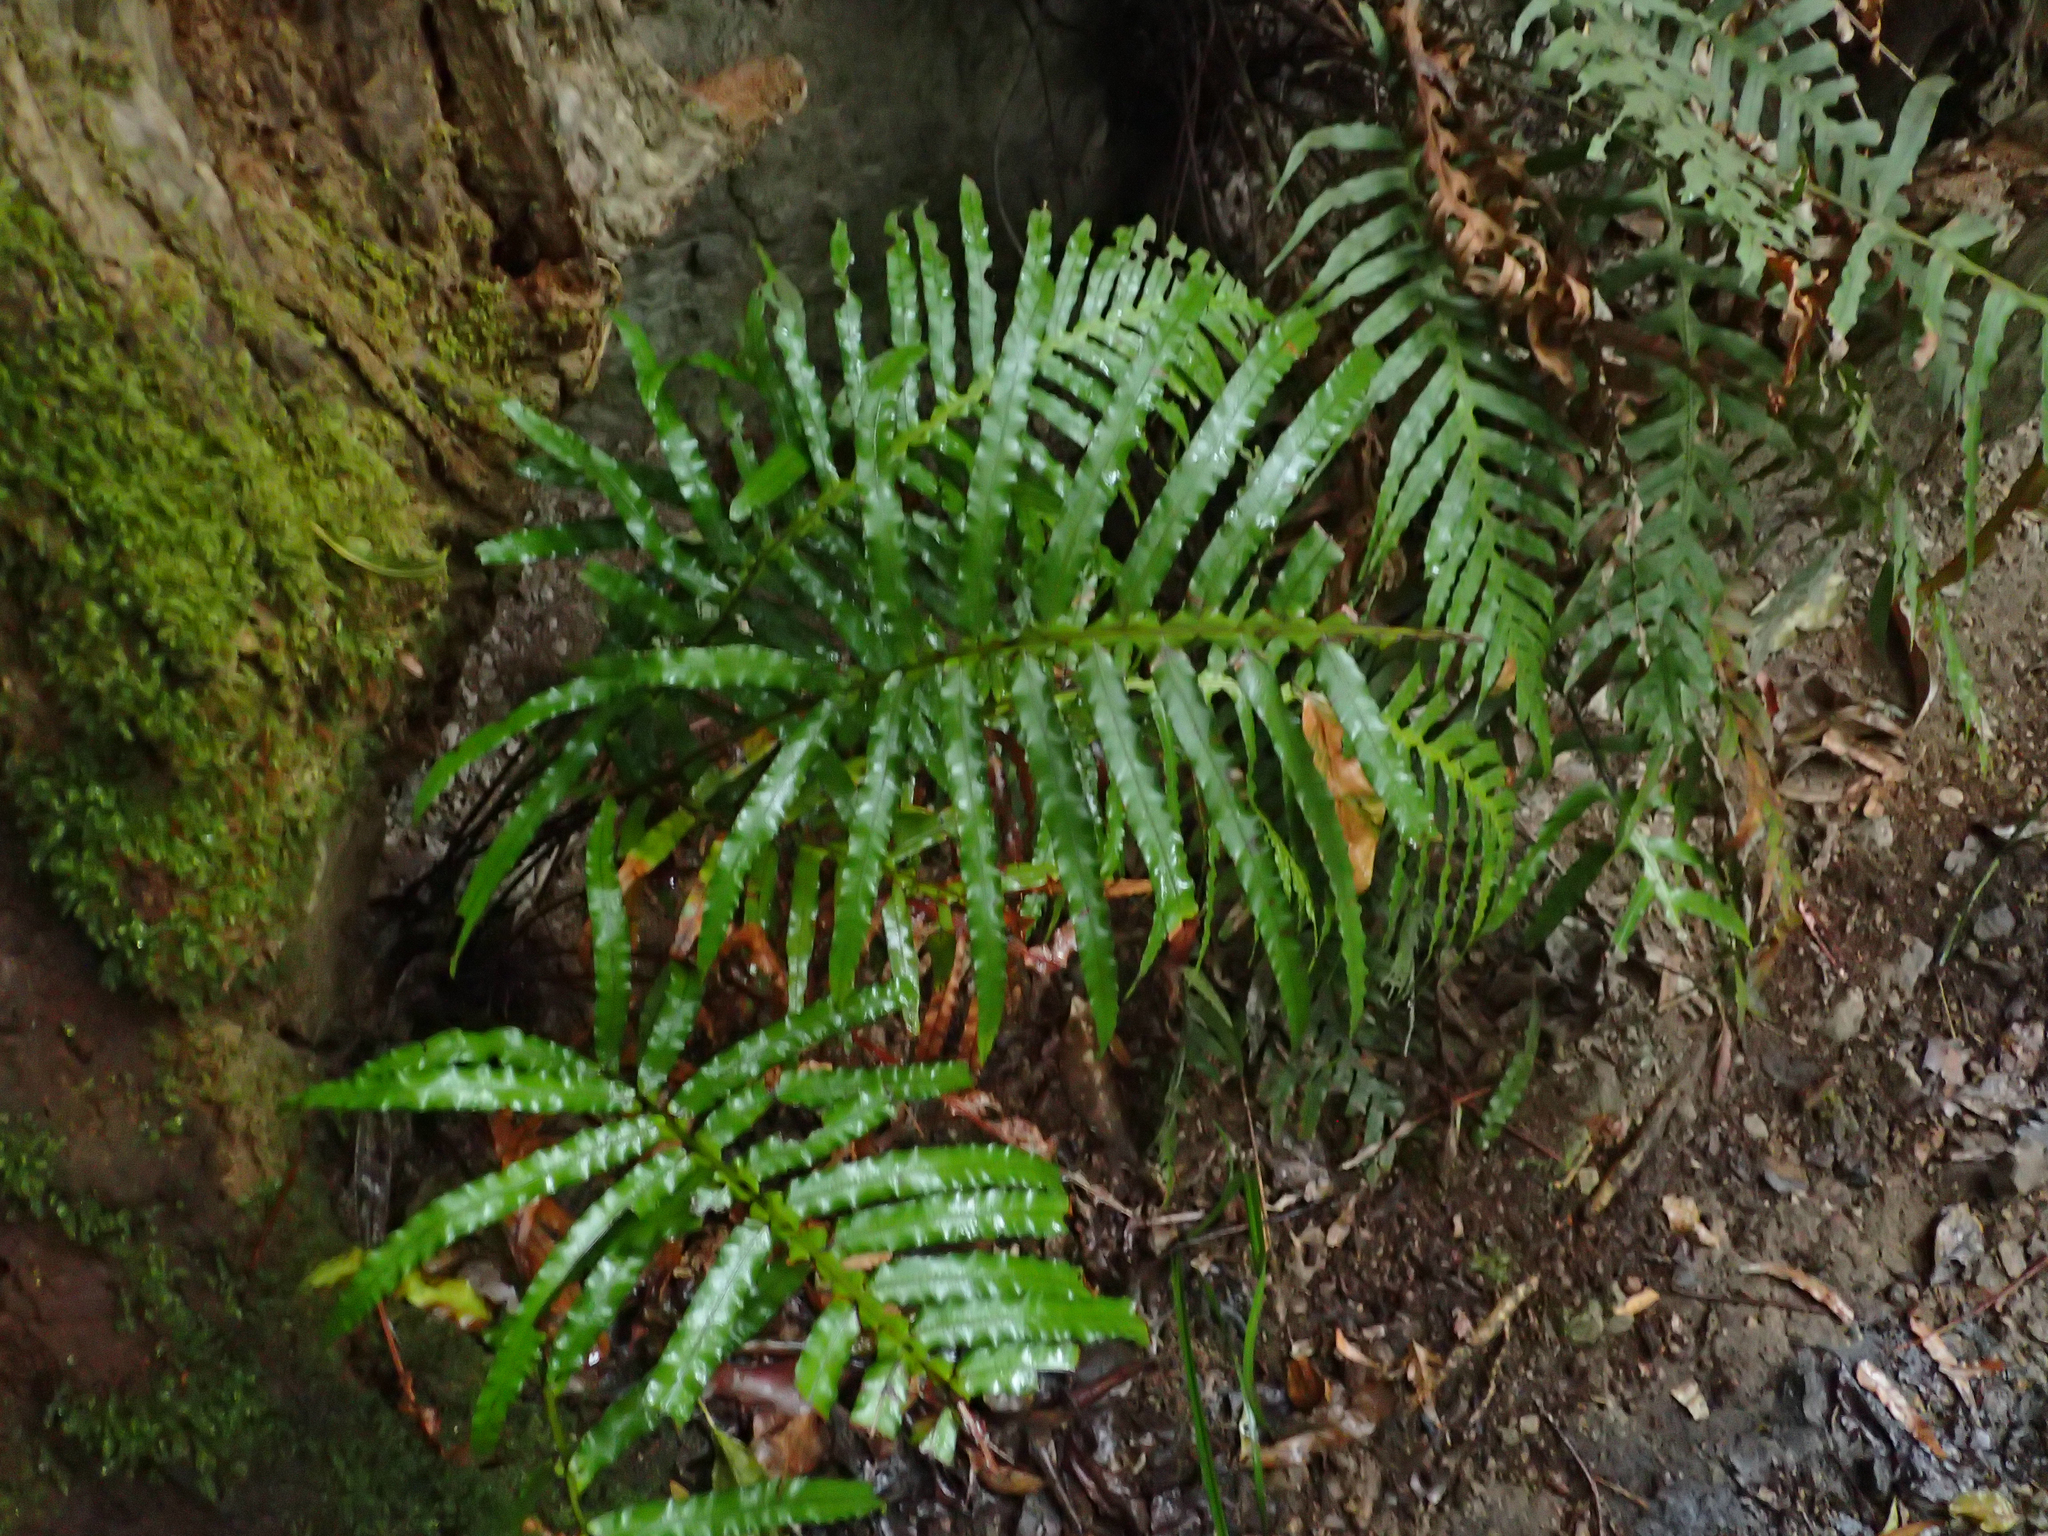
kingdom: Plantae
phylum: Tracheophyta
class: Polypodiopsida
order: Polypodiales
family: Blechnaceae
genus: Oceaniopteris
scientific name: Oceaniopteris cartilaginea
